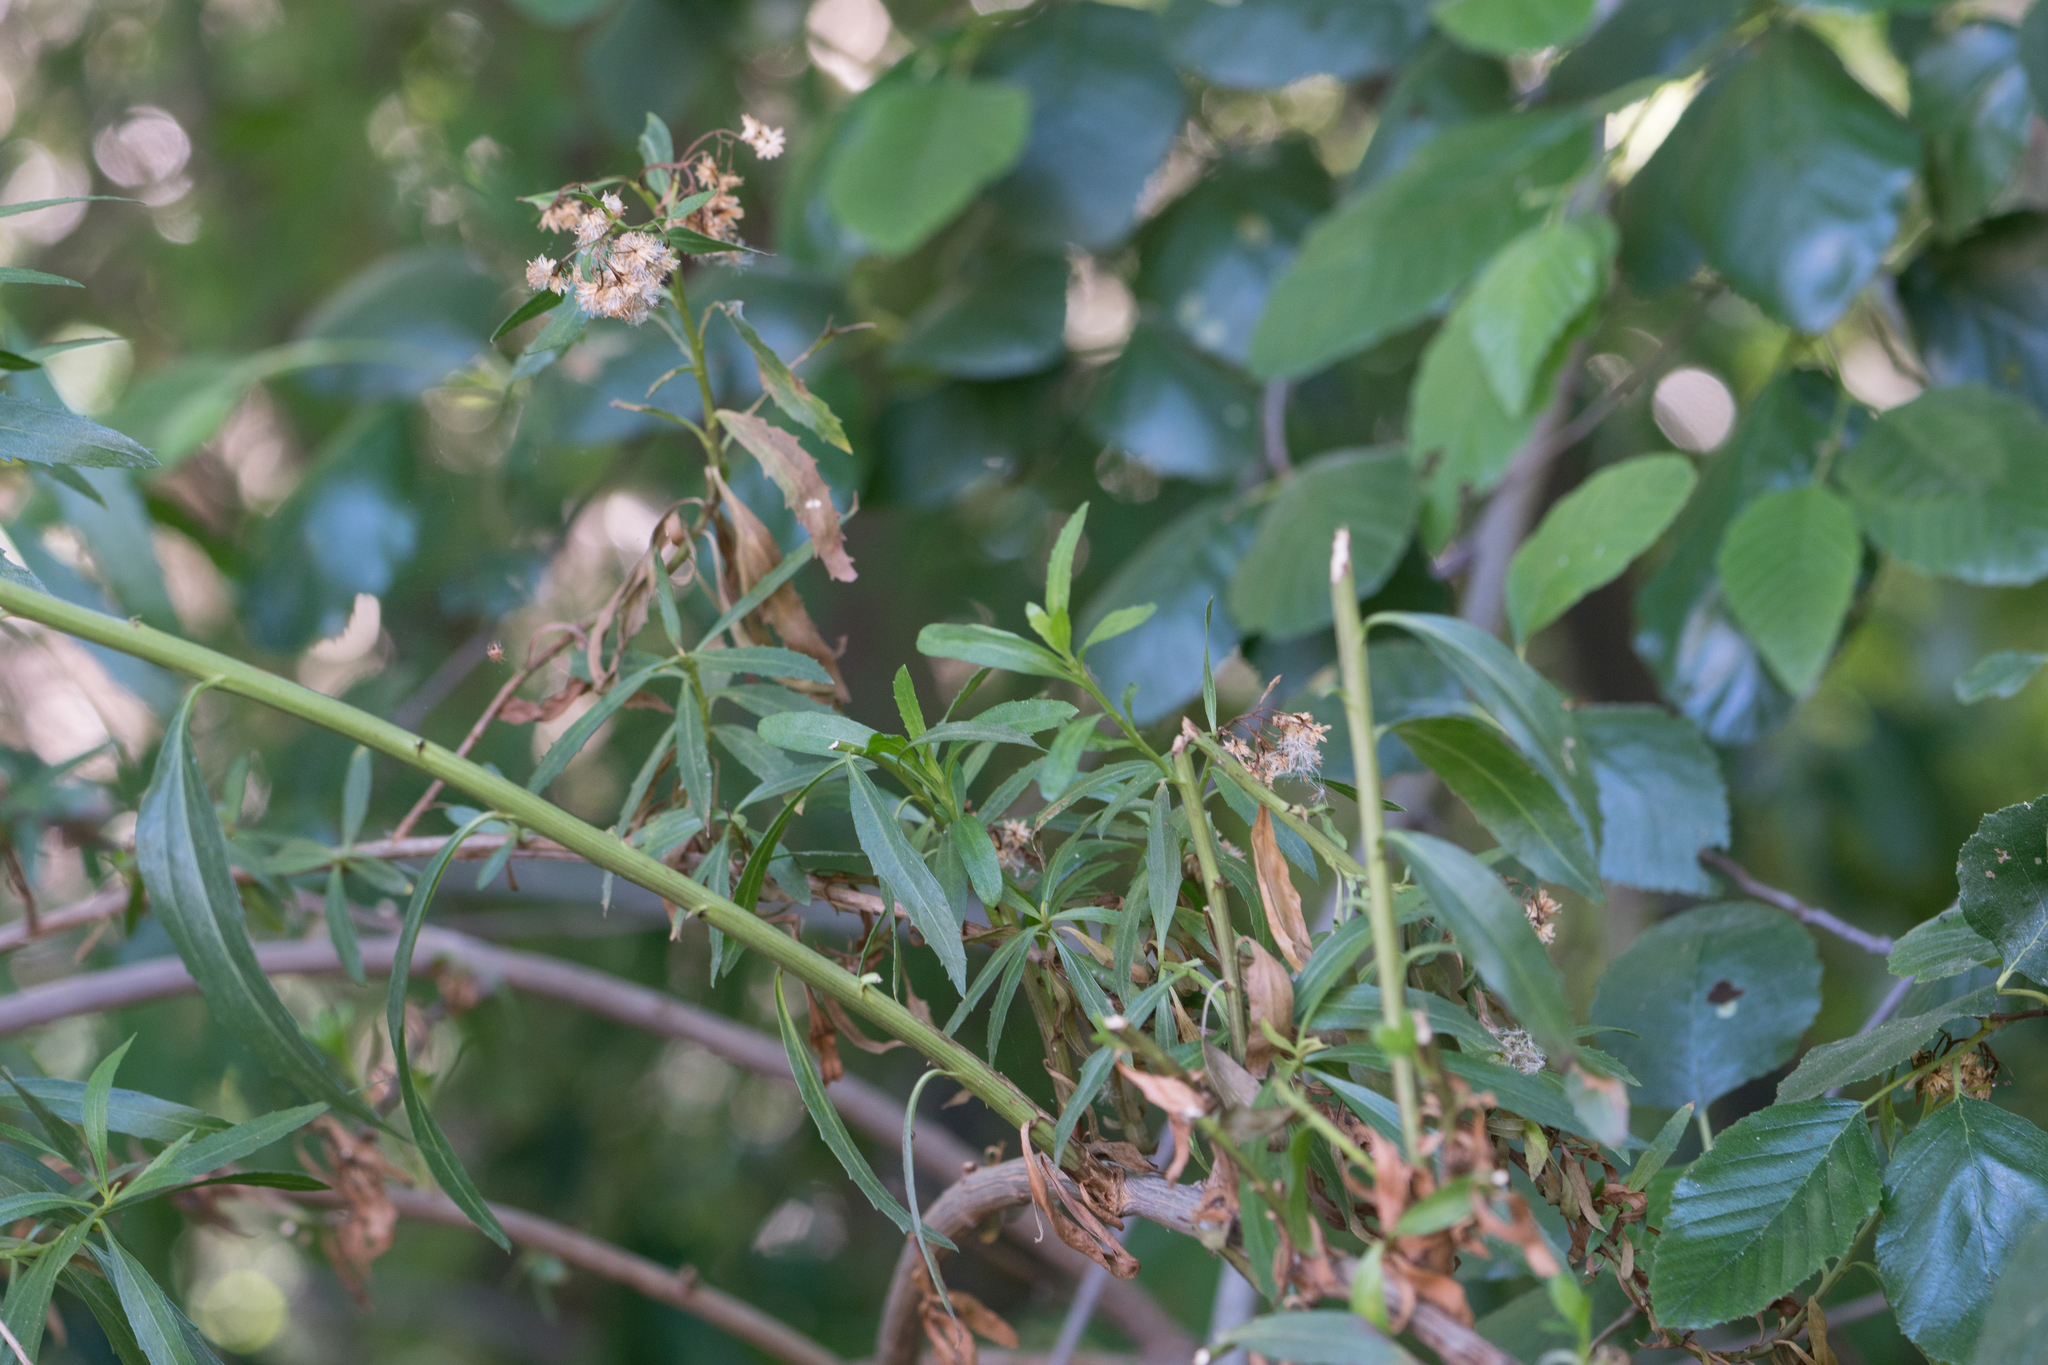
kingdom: Plantae
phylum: Tracheophyta
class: Magnoliopsida
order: Asterales
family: Asteraceae
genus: Baccharis
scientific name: Baccharis salicifolia
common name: Sticky baccharis
